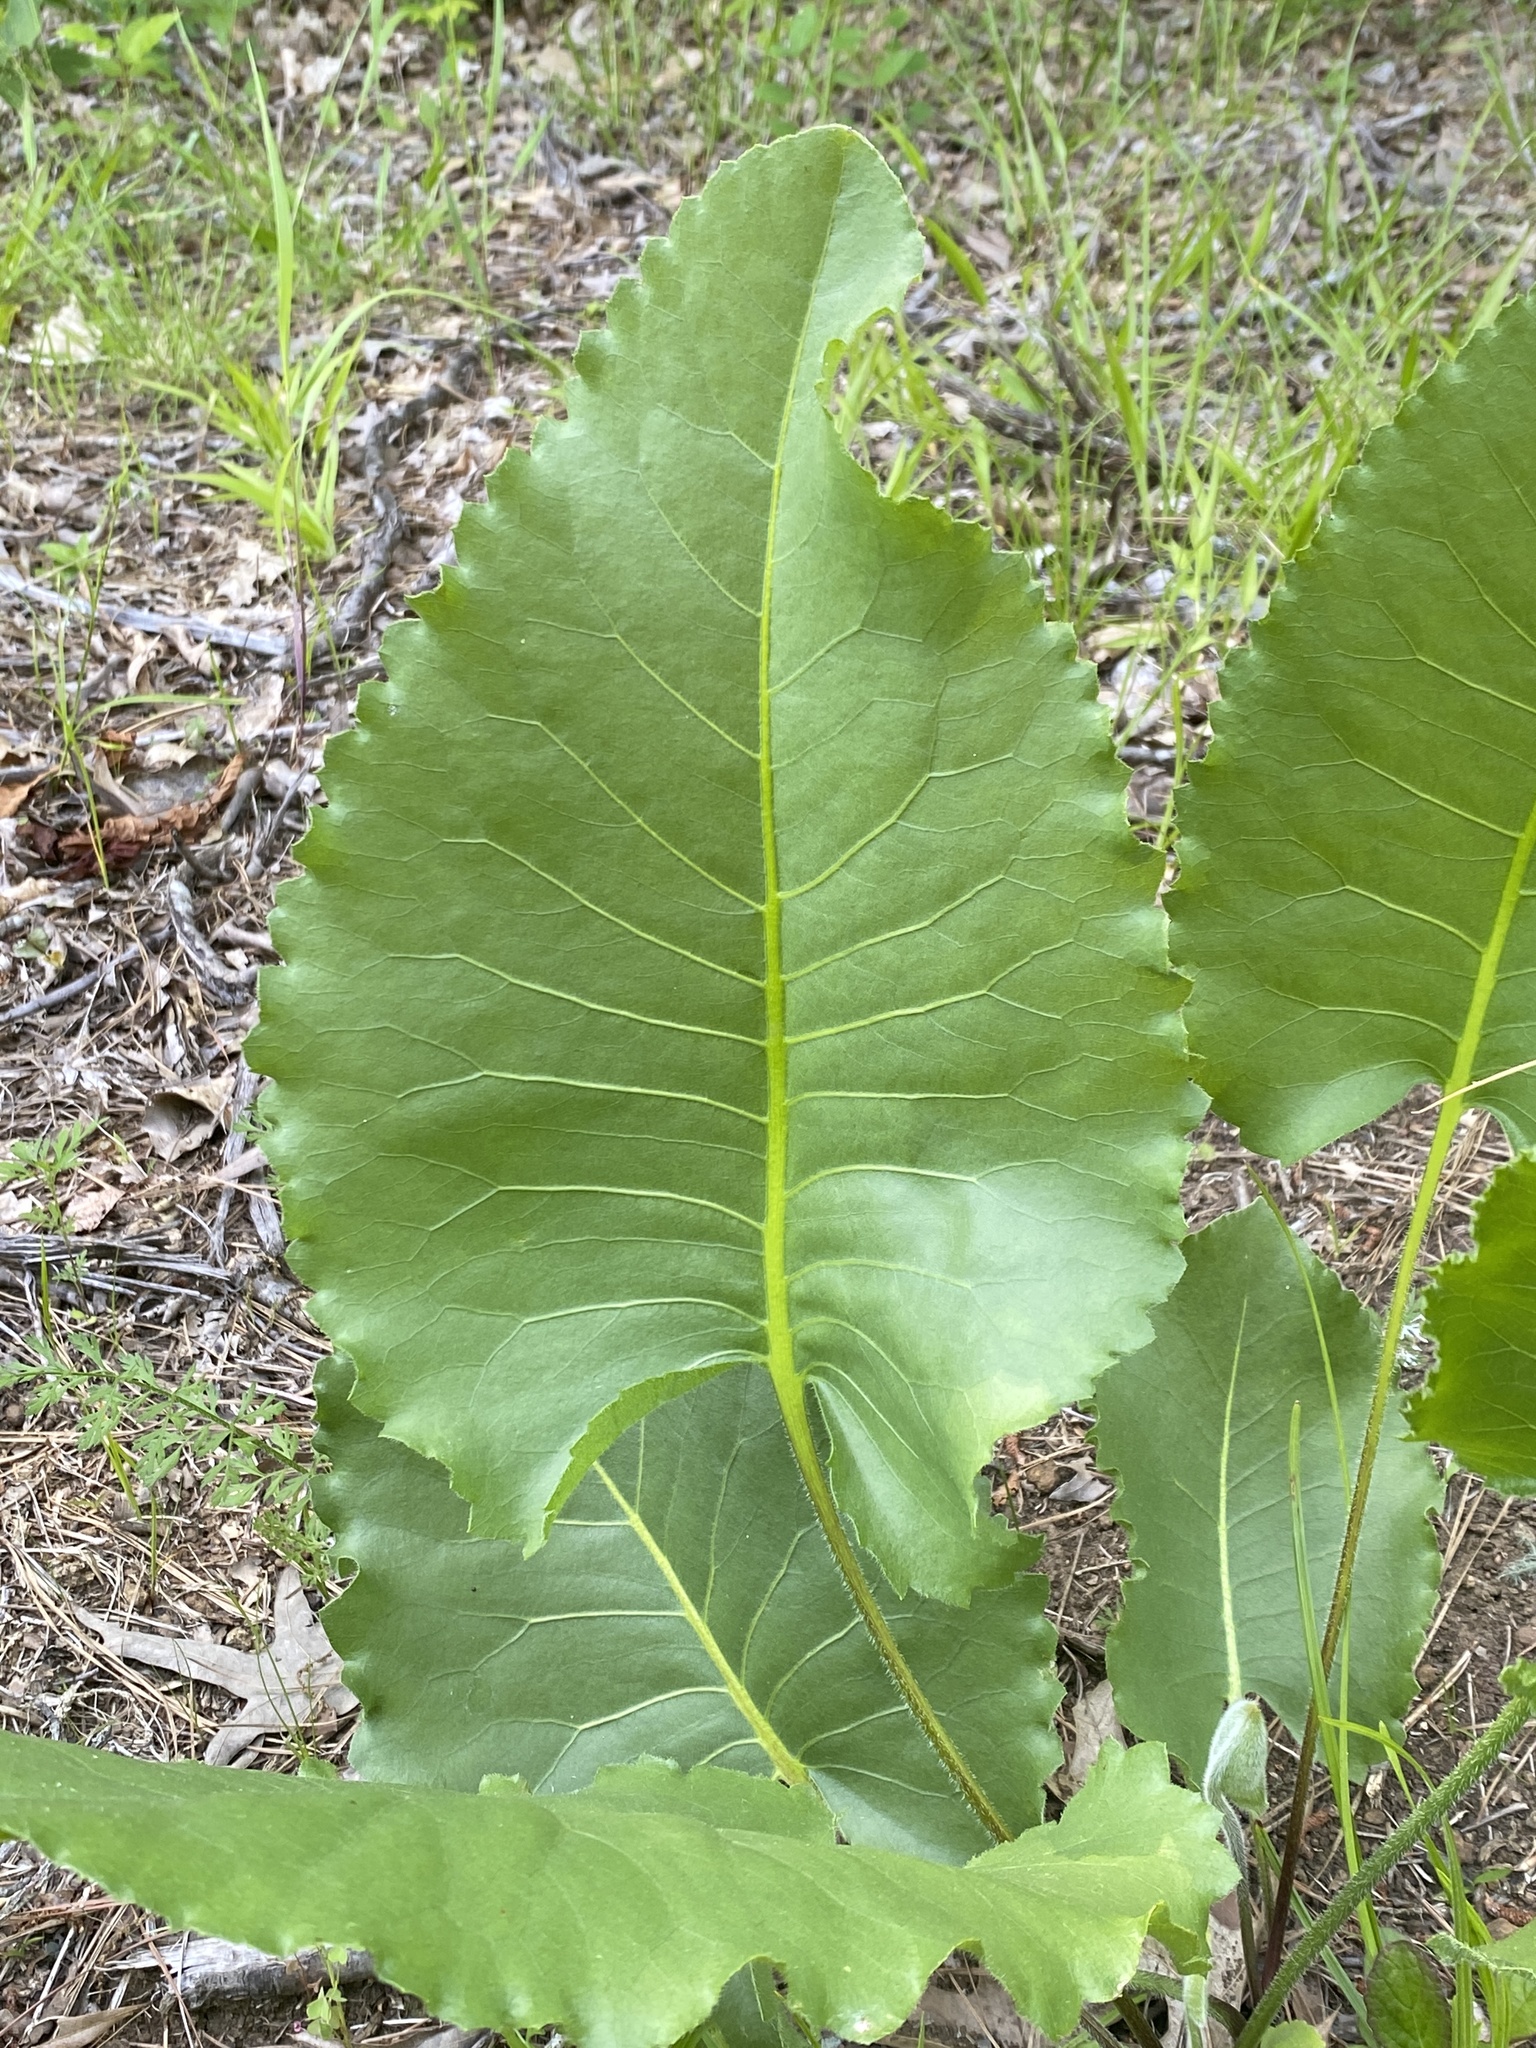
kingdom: Plantae
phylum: Tracheophyta
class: Magnoliopsida
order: Asterales
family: Asteraceae
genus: Silphium
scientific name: Silphium terebinthinaceum
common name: Basal-leaf rosinweed
